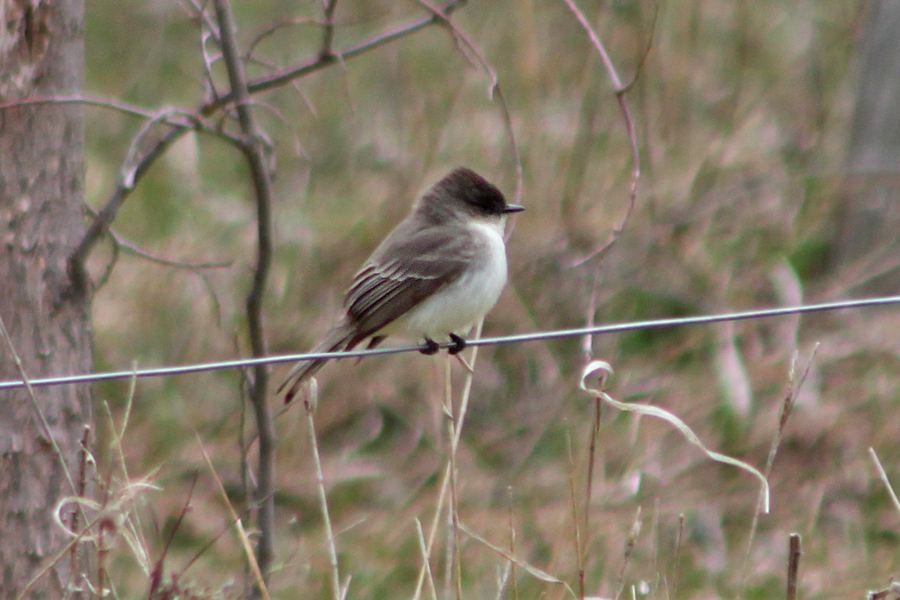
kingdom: Animalia
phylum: Chordata
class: Aves
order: Passeriformes
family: Tyrannidae
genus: Sayornis
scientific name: Sayornis phoebe
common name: Eastern phoebe
